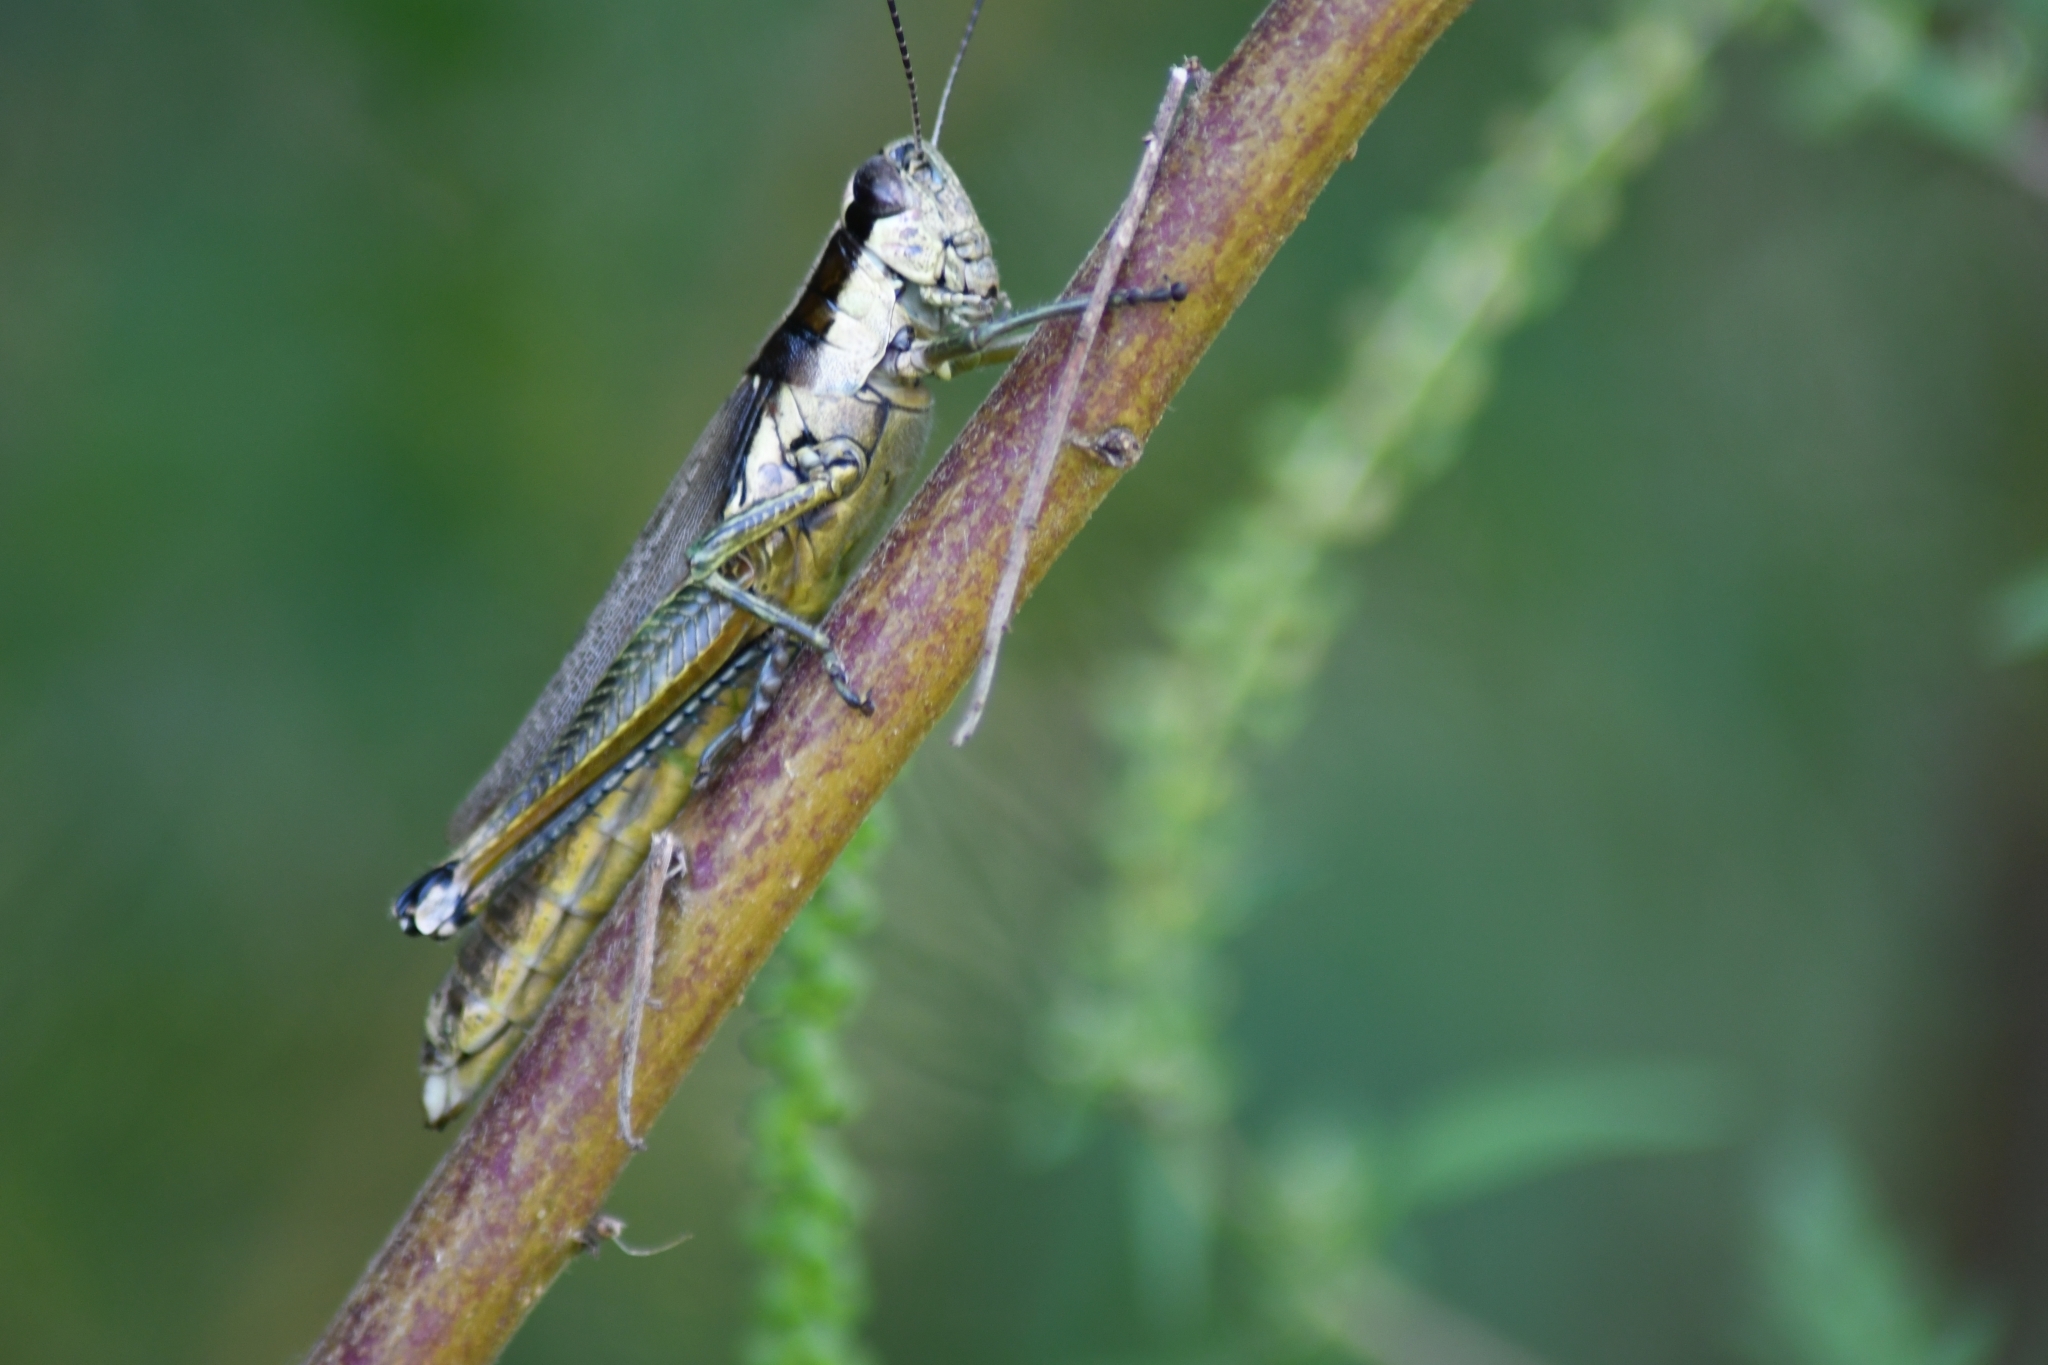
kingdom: Animalia
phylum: Arthropoda
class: Insecta
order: Orthoptera
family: Acrididae
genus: Paroxya
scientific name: Paroxya clavuligera
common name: Olive-green swamp grasshopper
